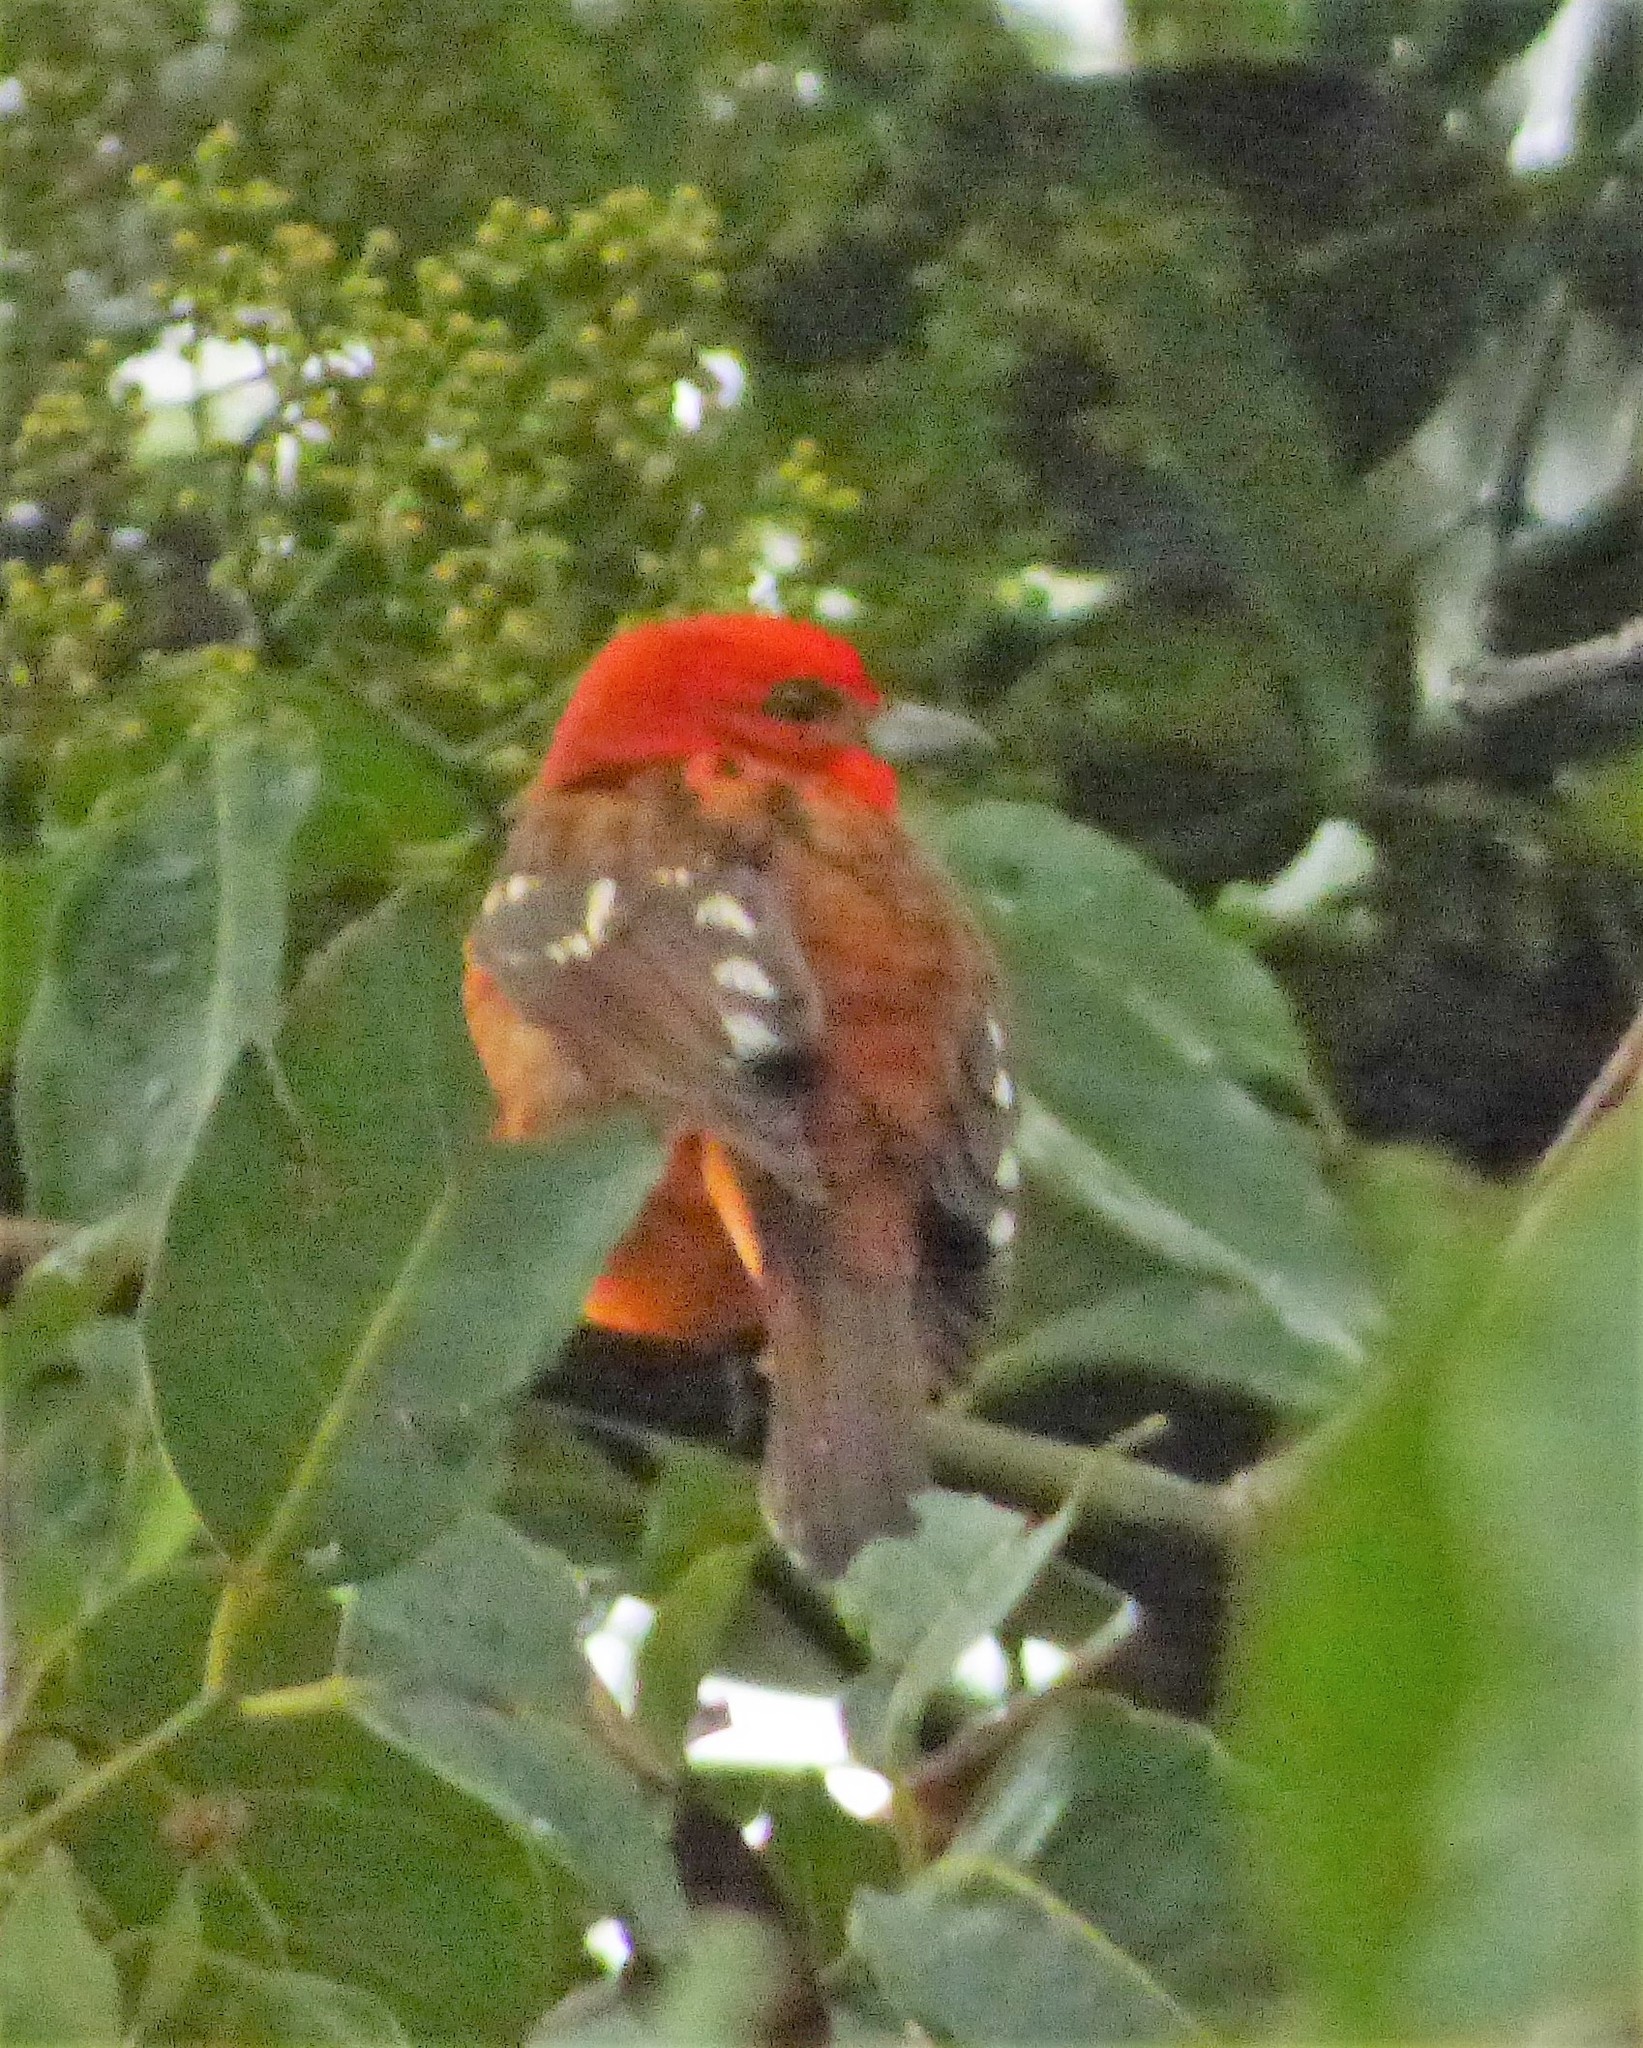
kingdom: Animalia
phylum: Chordata
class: Aves
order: Passeriformes
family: Cardinalidae
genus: Piranga
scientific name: Piranga bidentata
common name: Flame-colored tanager
